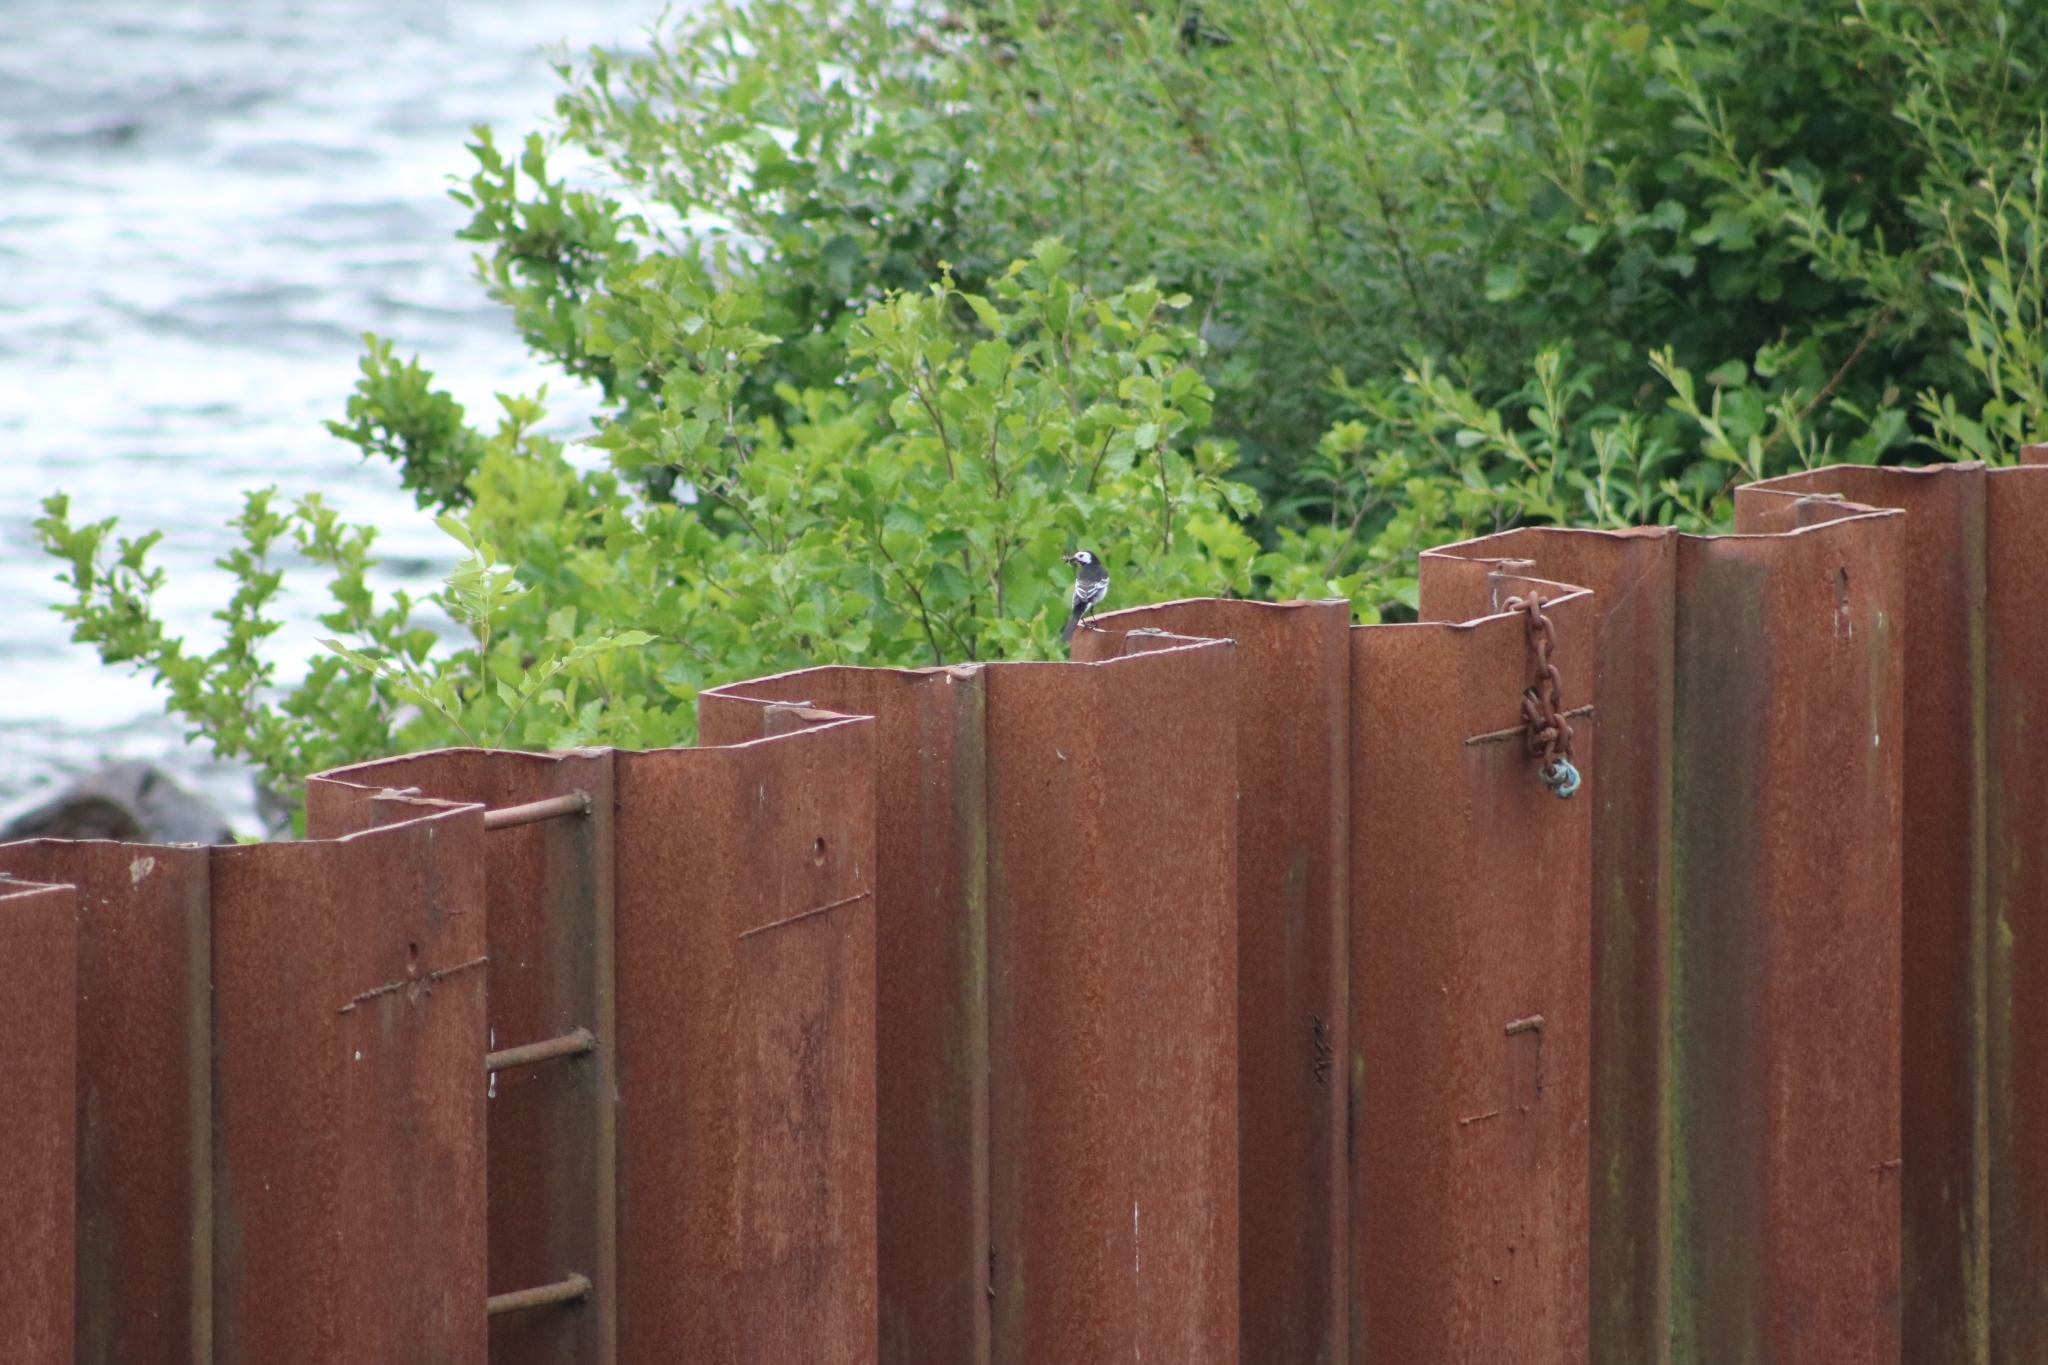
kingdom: Animalia
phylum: Chordata
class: Aves
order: Passeriformes
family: Motacillidae
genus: Motacilla
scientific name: Motacilla alba
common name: White wagtail
